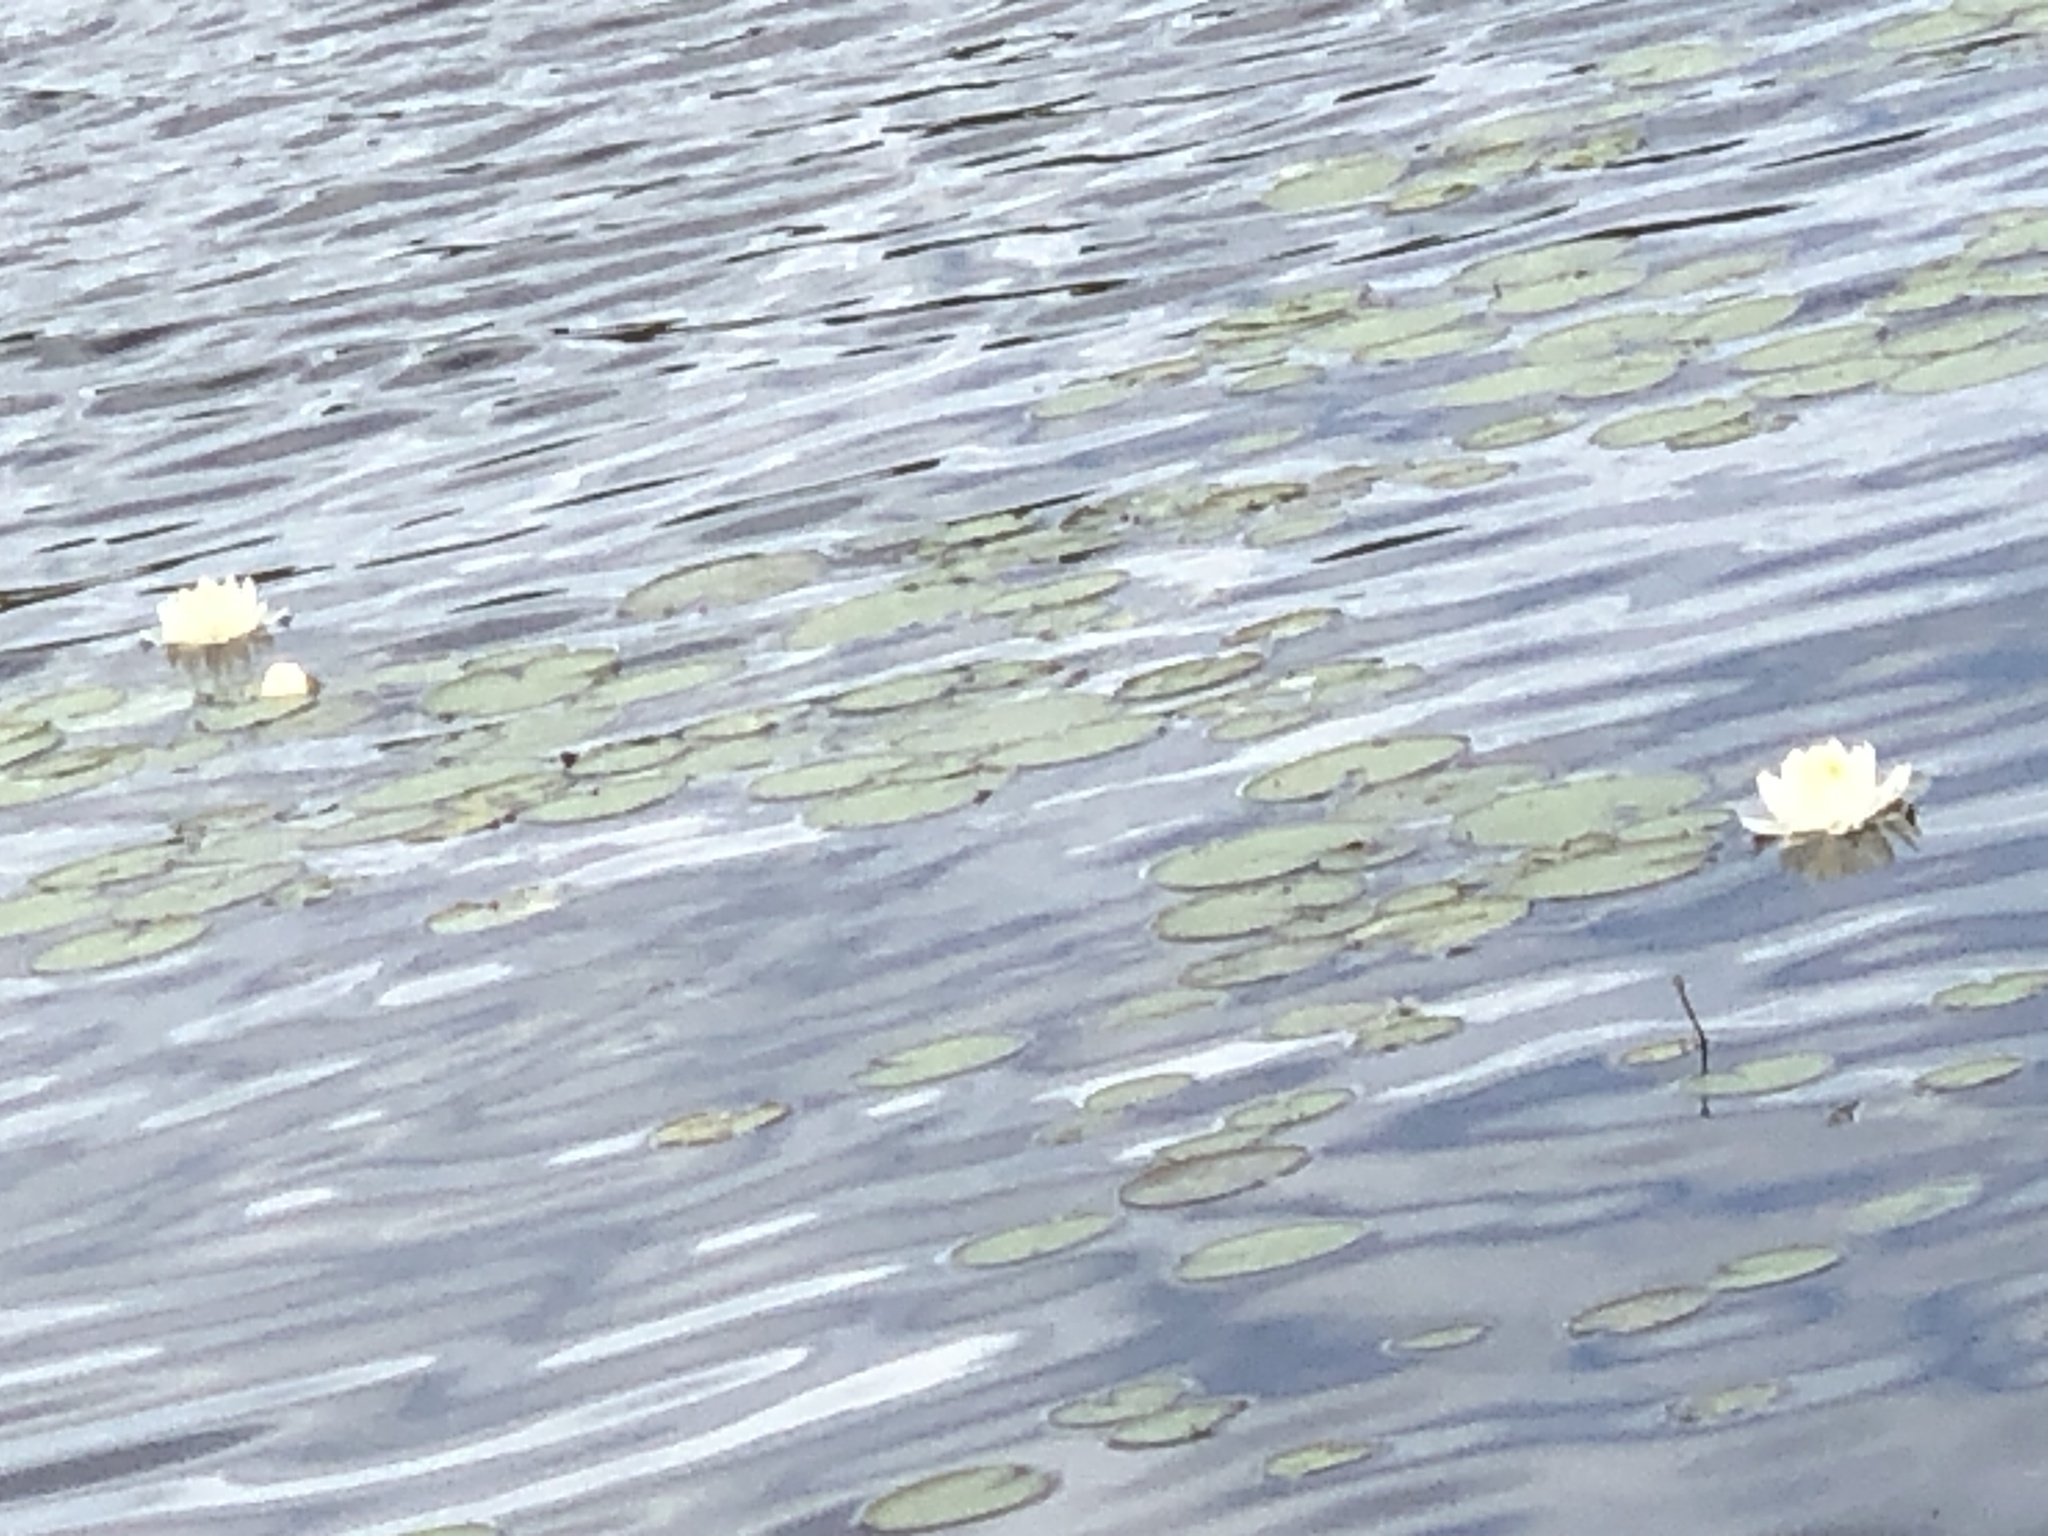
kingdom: Plantae
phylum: Tracheophyta
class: Magnoliopsida
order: Nymphaeales
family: Nymphaeaceae
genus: Nymphaea
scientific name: Nymphaea odorata
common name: Fragrant water-lily
